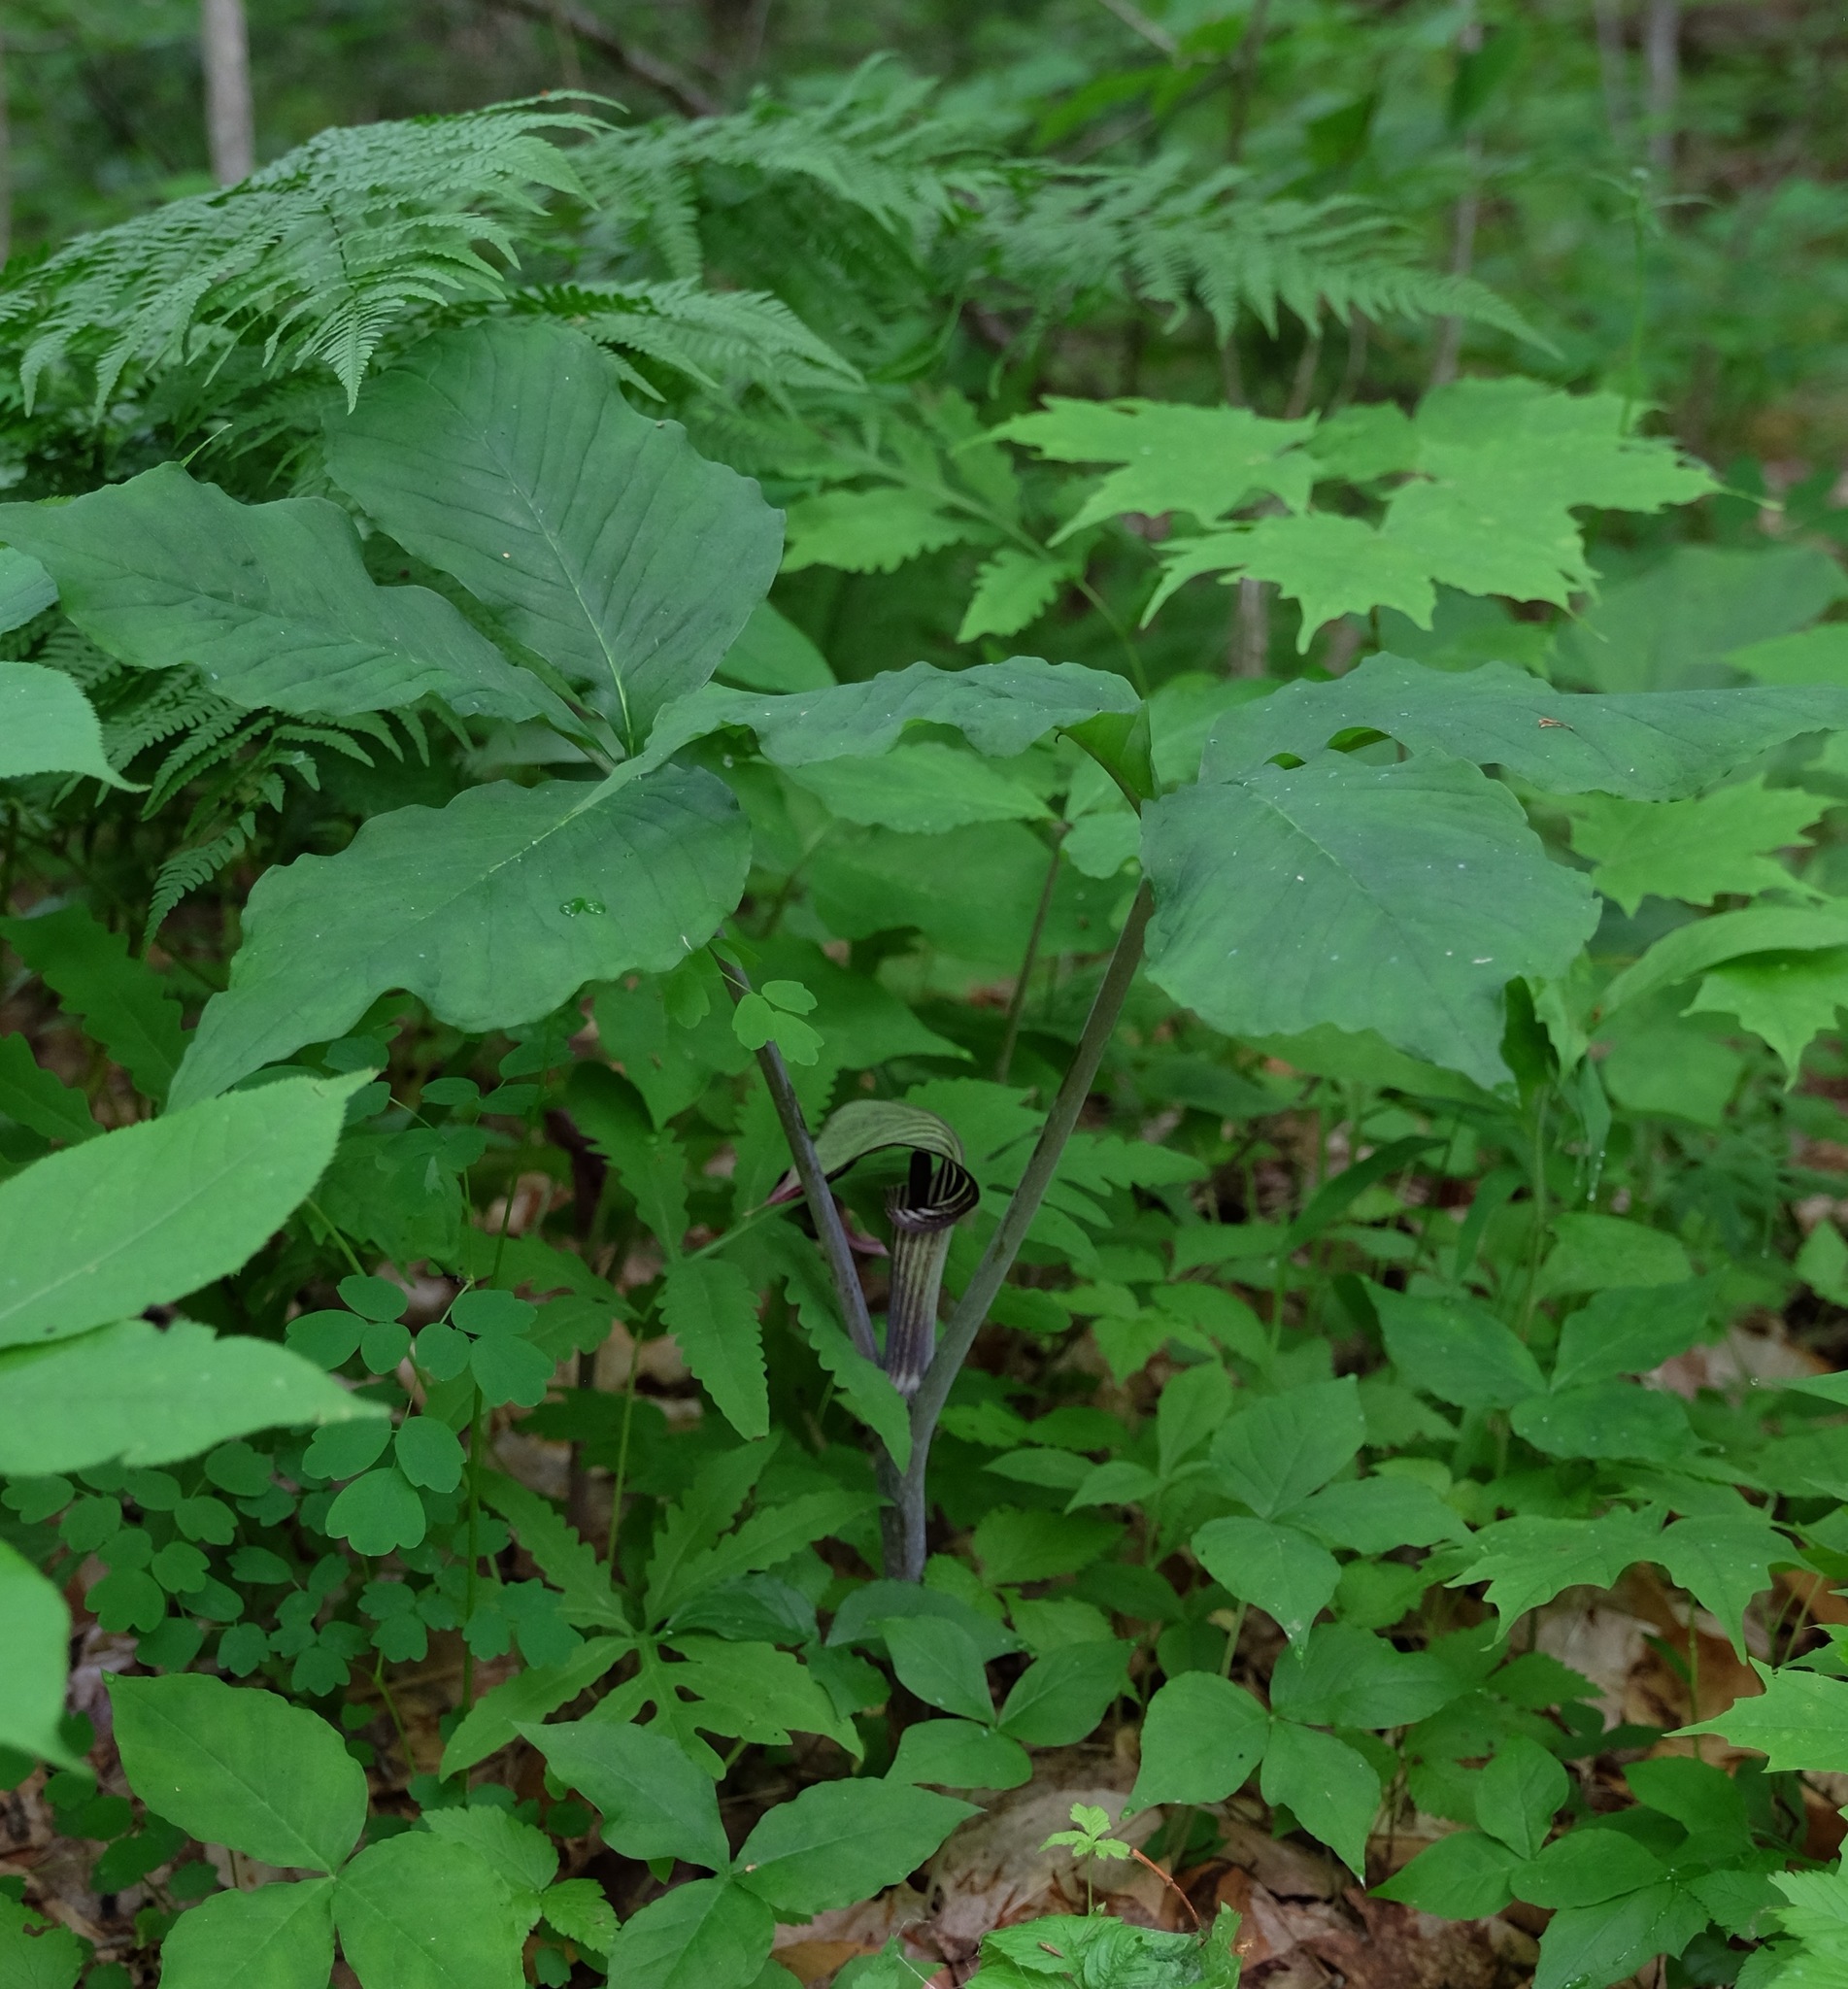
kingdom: Plantae
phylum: Tracheophyta
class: Liliopsida
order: Alismatales
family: Araceae
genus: Arisaema
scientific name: Arisaema triphyllum
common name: Jack-in-the-pulpit
